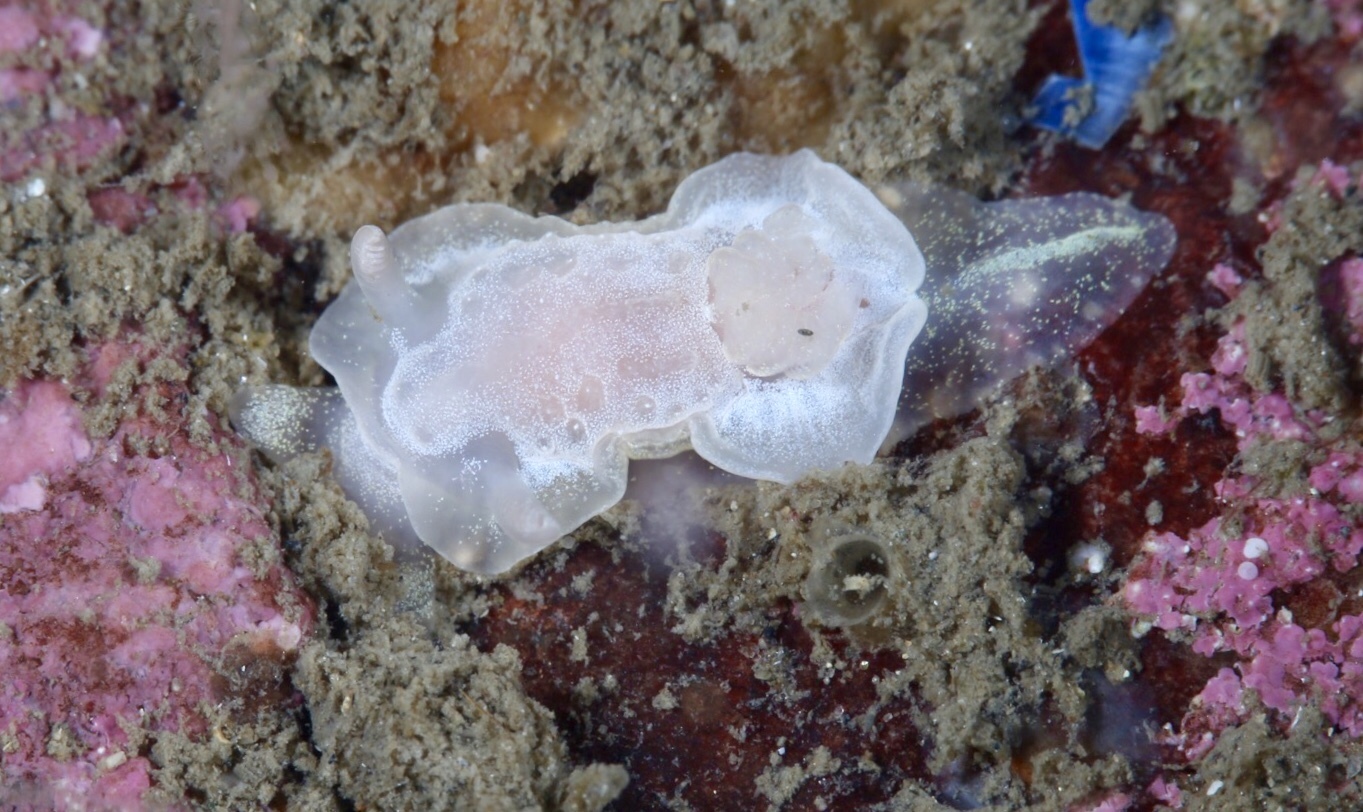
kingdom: Animalia
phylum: Mollusca
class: Gastropoda
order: Nudibranchia
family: Goniodorididae
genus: Okenia
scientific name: Okenia
